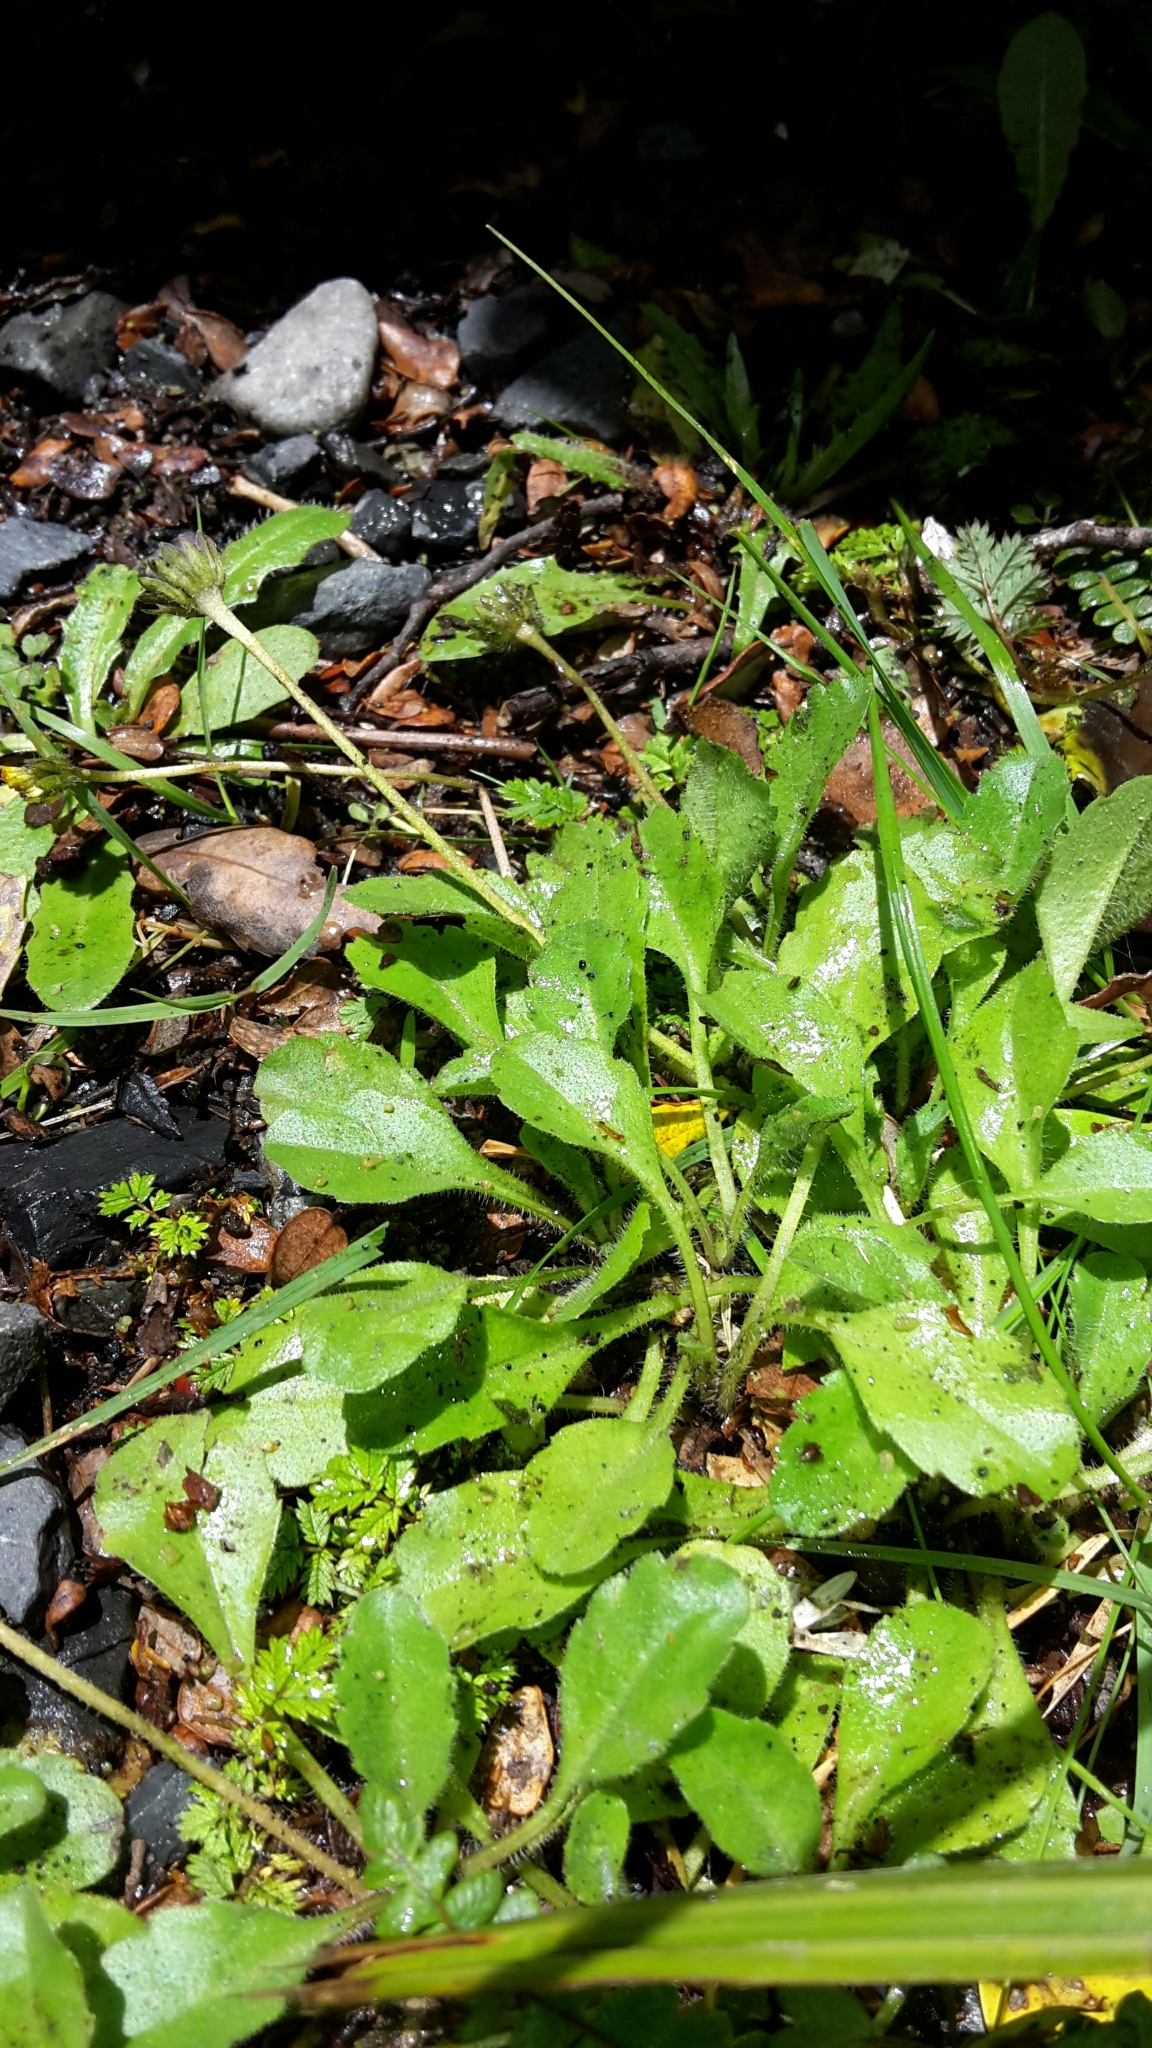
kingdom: Plantae
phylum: Tracheophyta
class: Magnoliopsida
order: Asterales
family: Asteraceae
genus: Lagenophora
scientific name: Lagenophora cuneata
